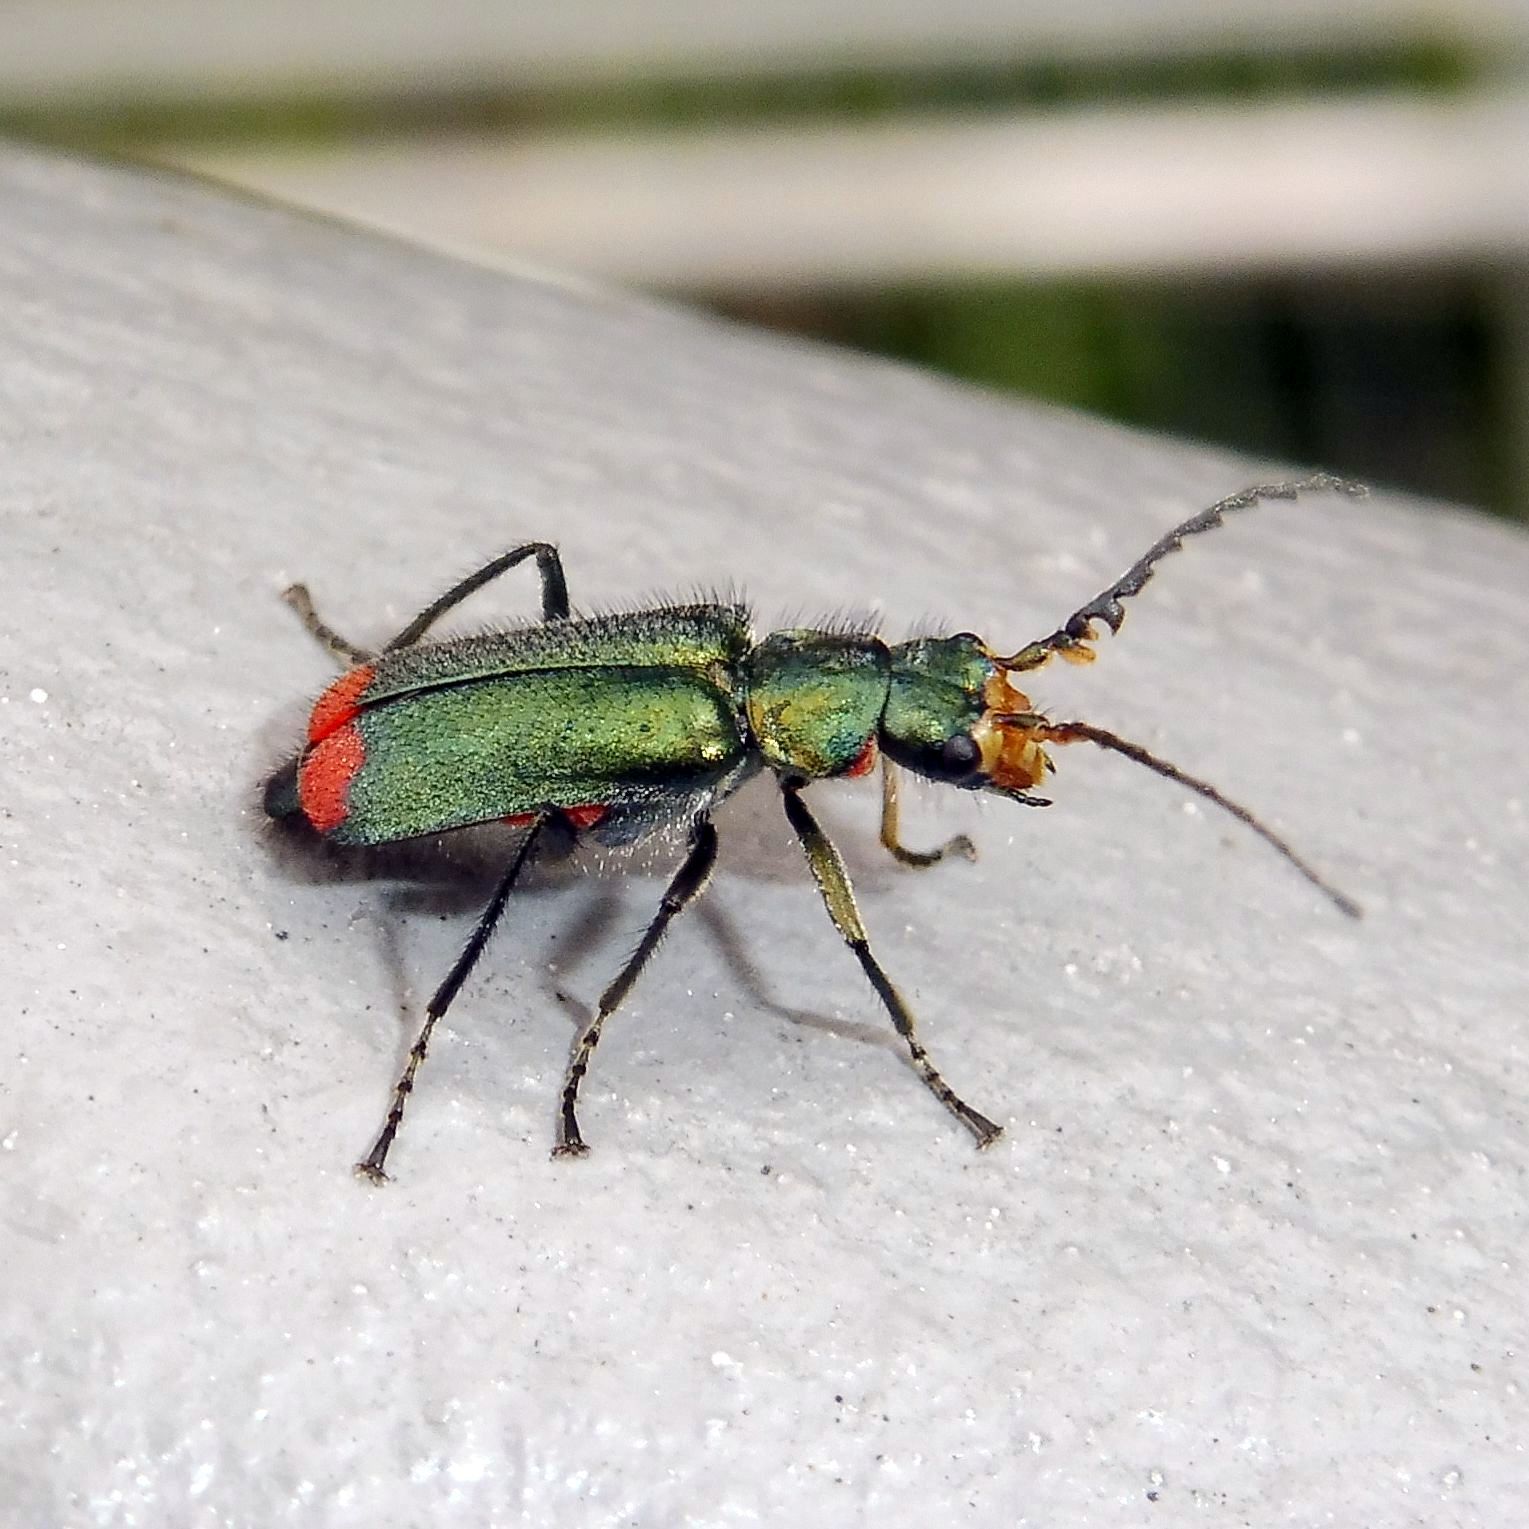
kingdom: Animalia
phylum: Arthropoda
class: Insecta
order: Coleoptera
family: Melyridae
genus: Malachius
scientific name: Malachius bipustulatus
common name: Malachite beetle
